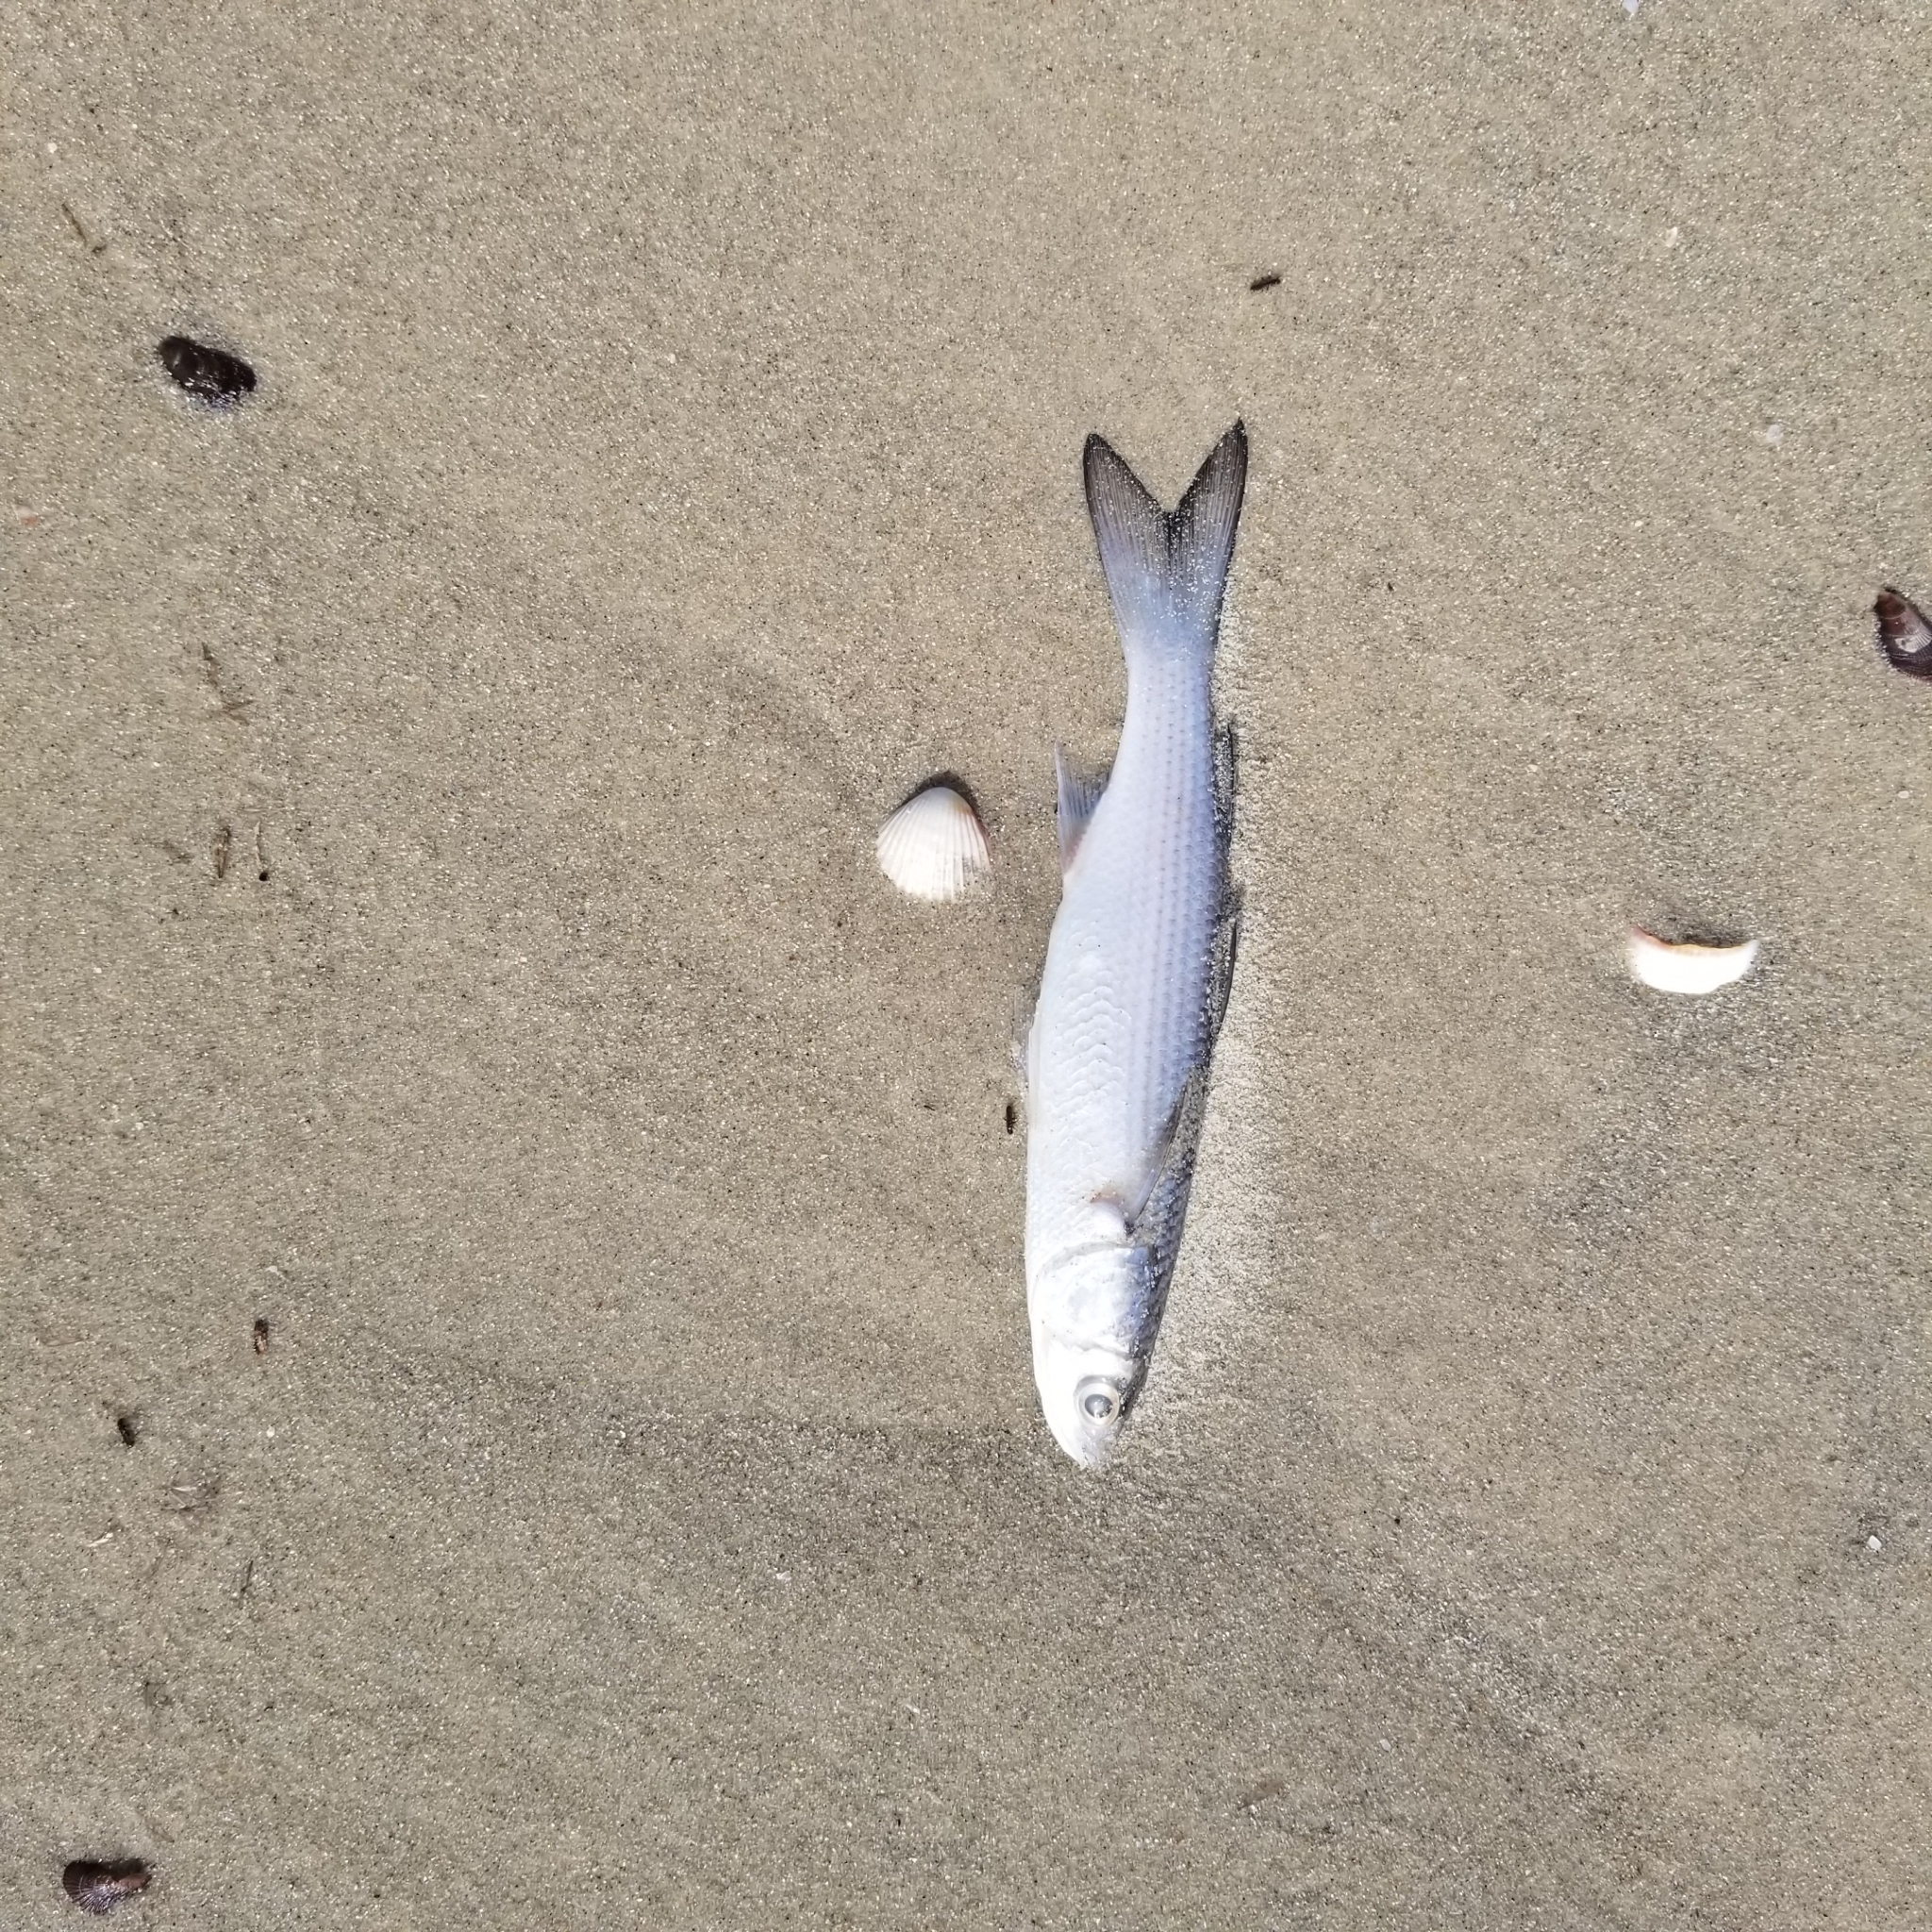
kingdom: Animalia
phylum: Chordata
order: Mugiliformes
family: Mugilidae
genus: Mugil
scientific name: Mugil cephalus
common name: Grey mullet
